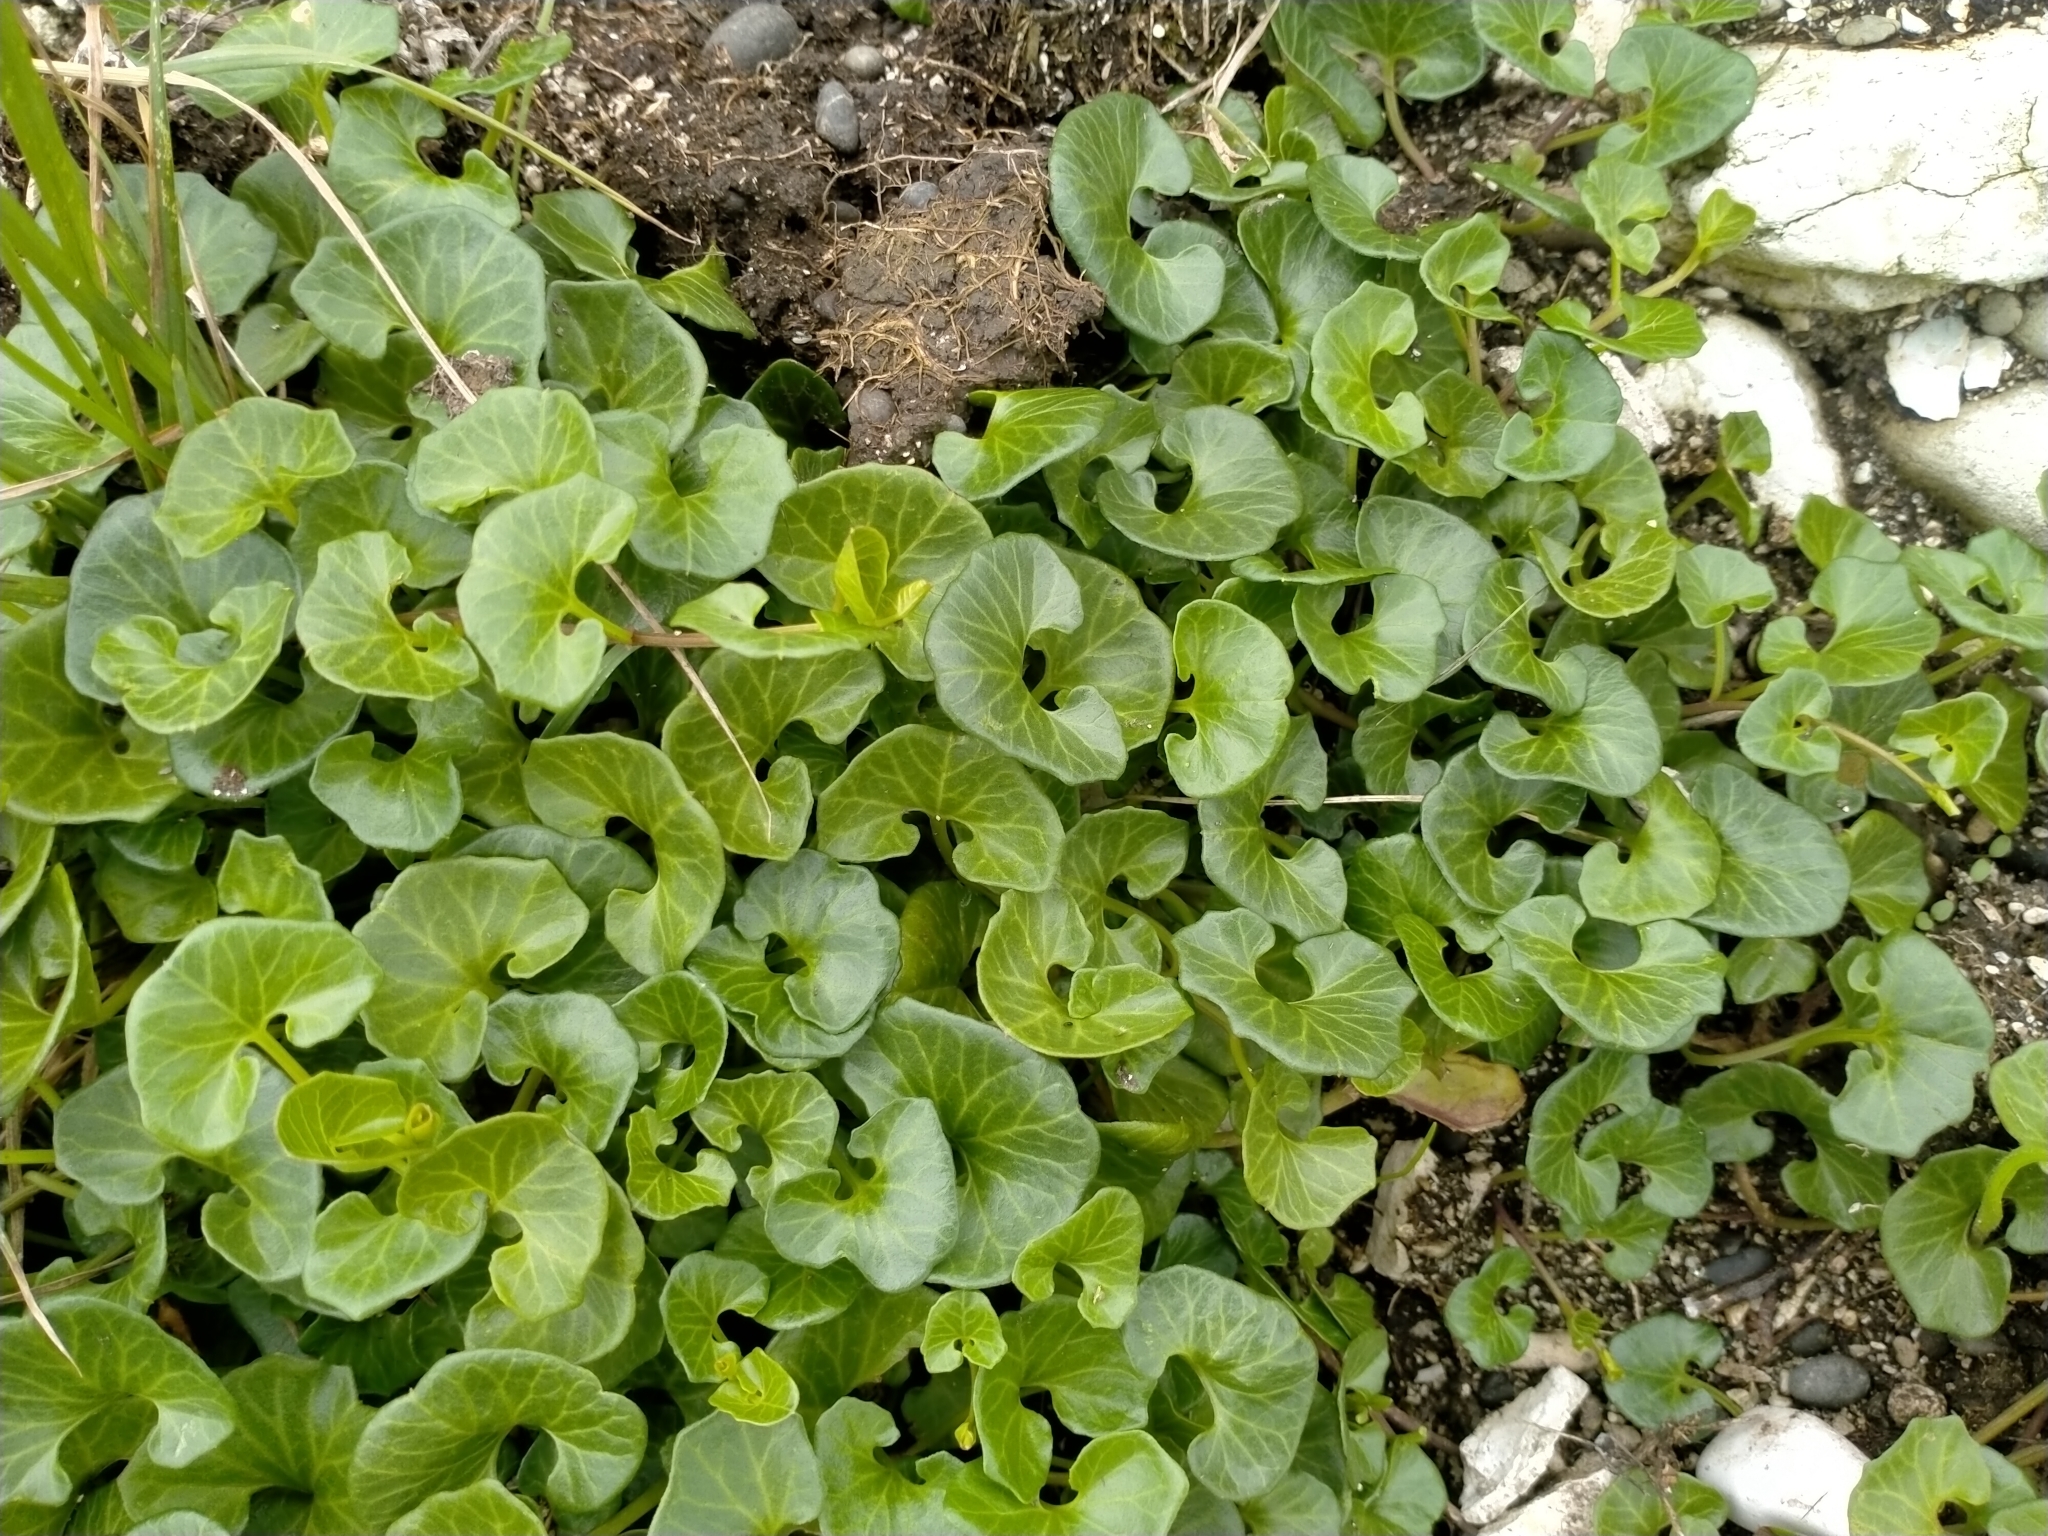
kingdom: Plantae
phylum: Tracheophyta
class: Magnoliopsida
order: Solanales
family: Convolvulaceae
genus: Calystegia
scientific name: Calystegia soldanella
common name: Sea bindweed
